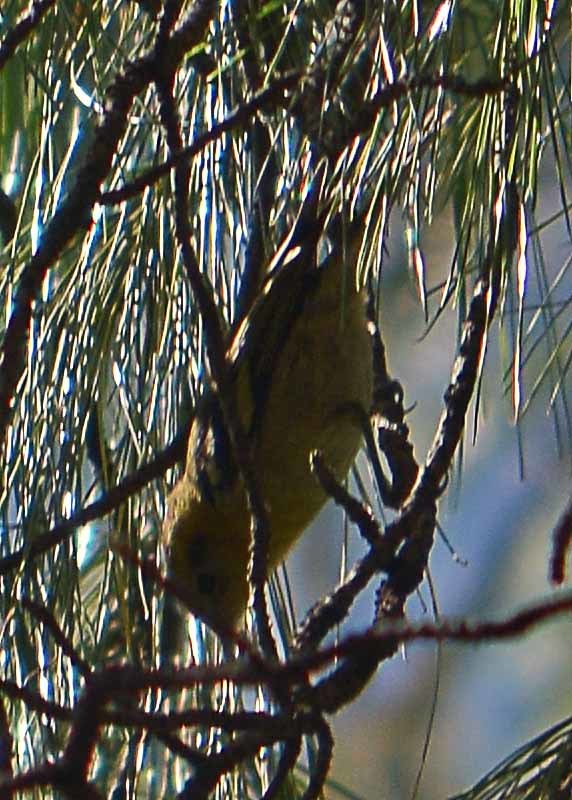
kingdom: Animalia
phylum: Chordata
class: Aves
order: Passeriformes
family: Peucedramidae
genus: Peucedramus
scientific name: Peucedramus taeniatus
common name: Olive warbler
